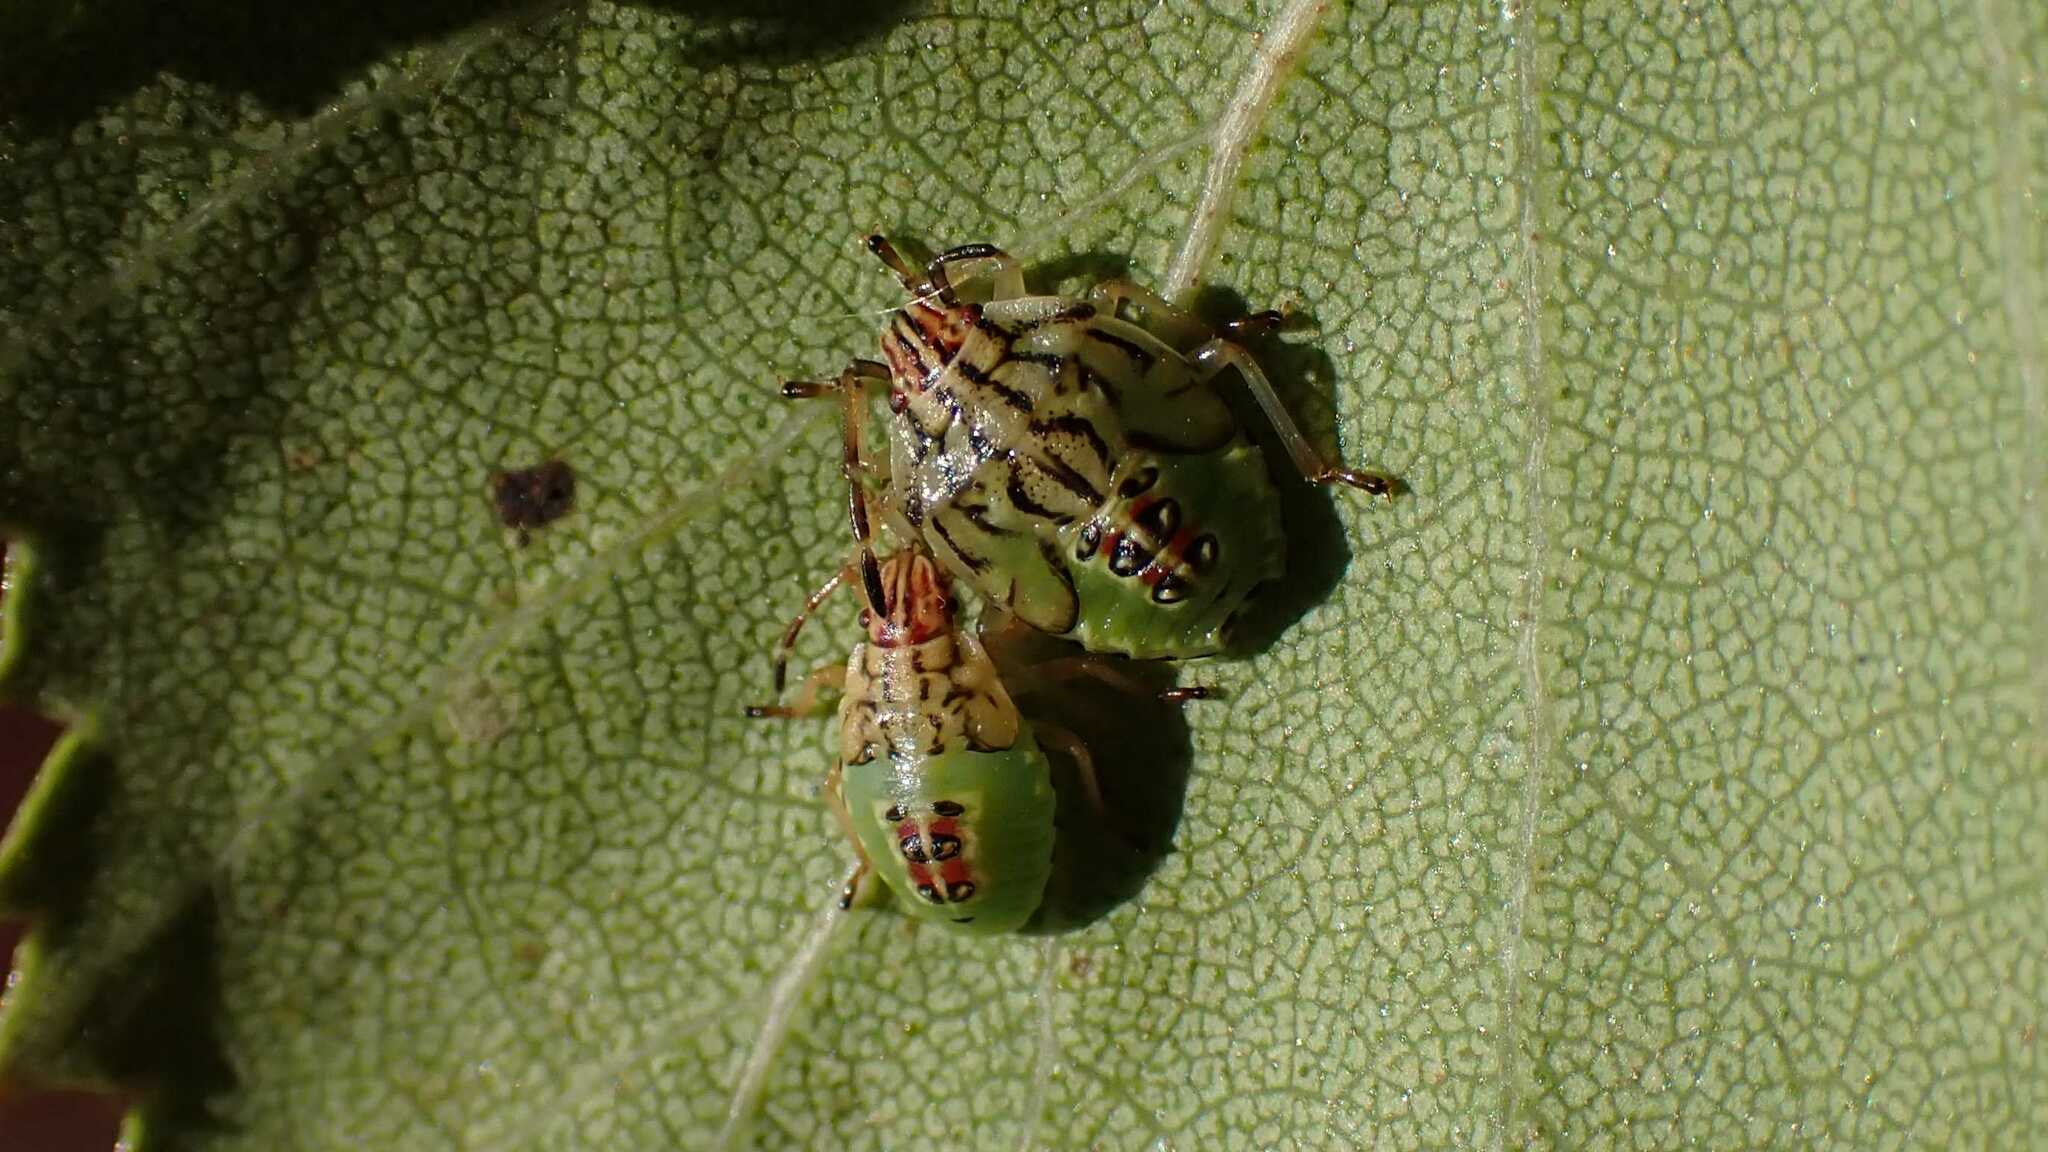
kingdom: Animalia
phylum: Arthropoda
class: Insecta
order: Hemiptera
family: Acanthosomatidae
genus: Elasmucha
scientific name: Elasmucha grisea
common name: Parent bug
